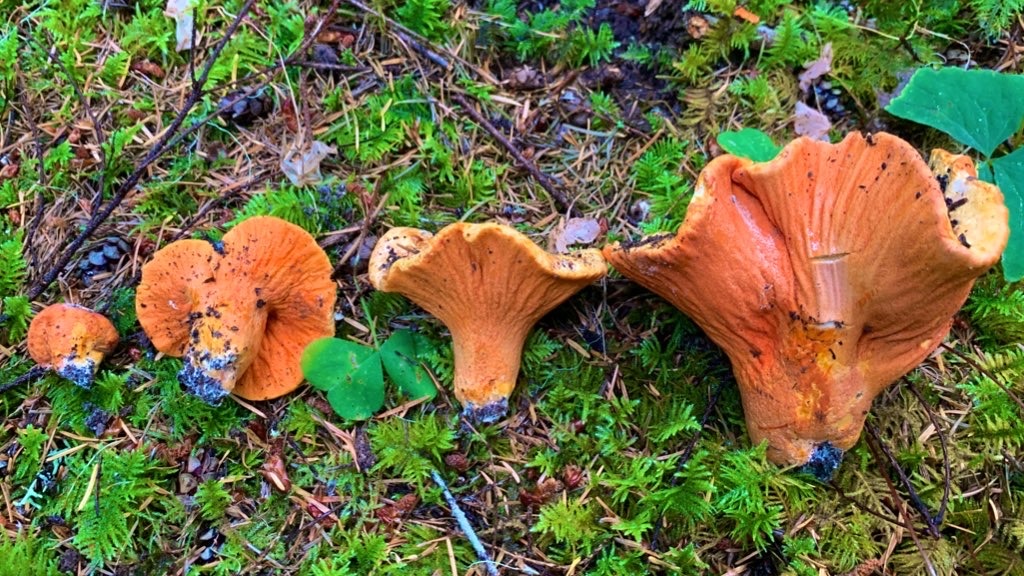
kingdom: Fungi
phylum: Ascomycota
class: Sordariomycetes
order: Hypocreales
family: Hypocreaceae
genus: Hypomyces
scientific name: Hypomyces lactifluorum
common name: Lobster mushroom
